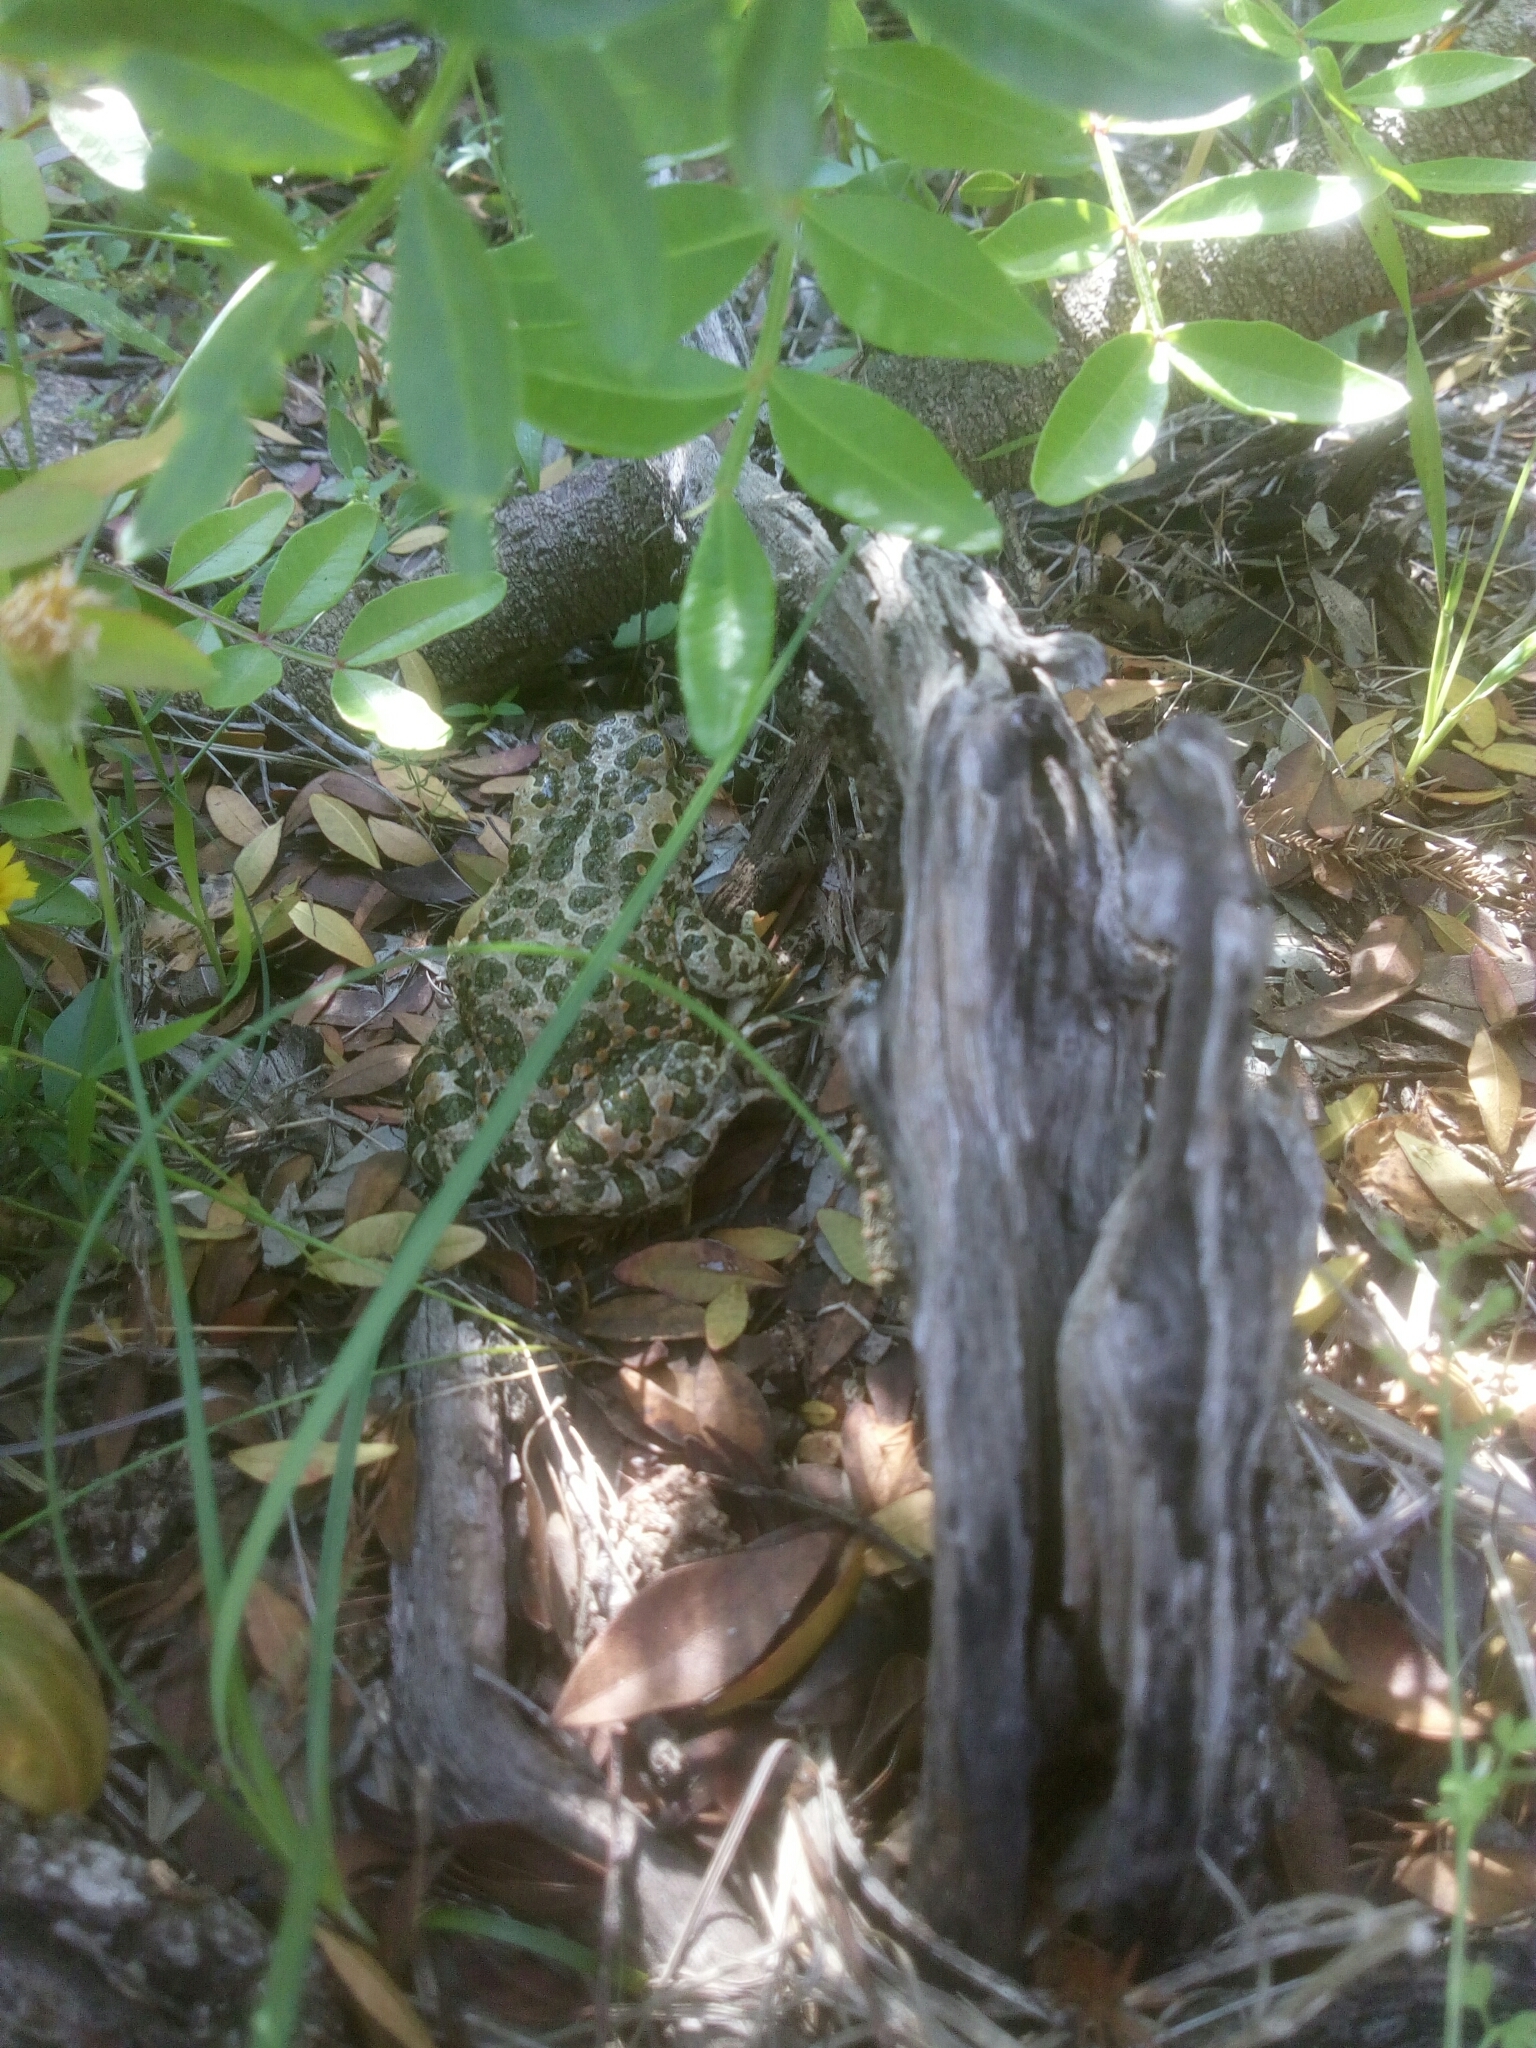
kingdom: Animalia
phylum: Chordata
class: Amphibia
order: Anura
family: Bufonidae
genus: Bufotes
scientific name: Bufotes viridis
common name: European green toad
